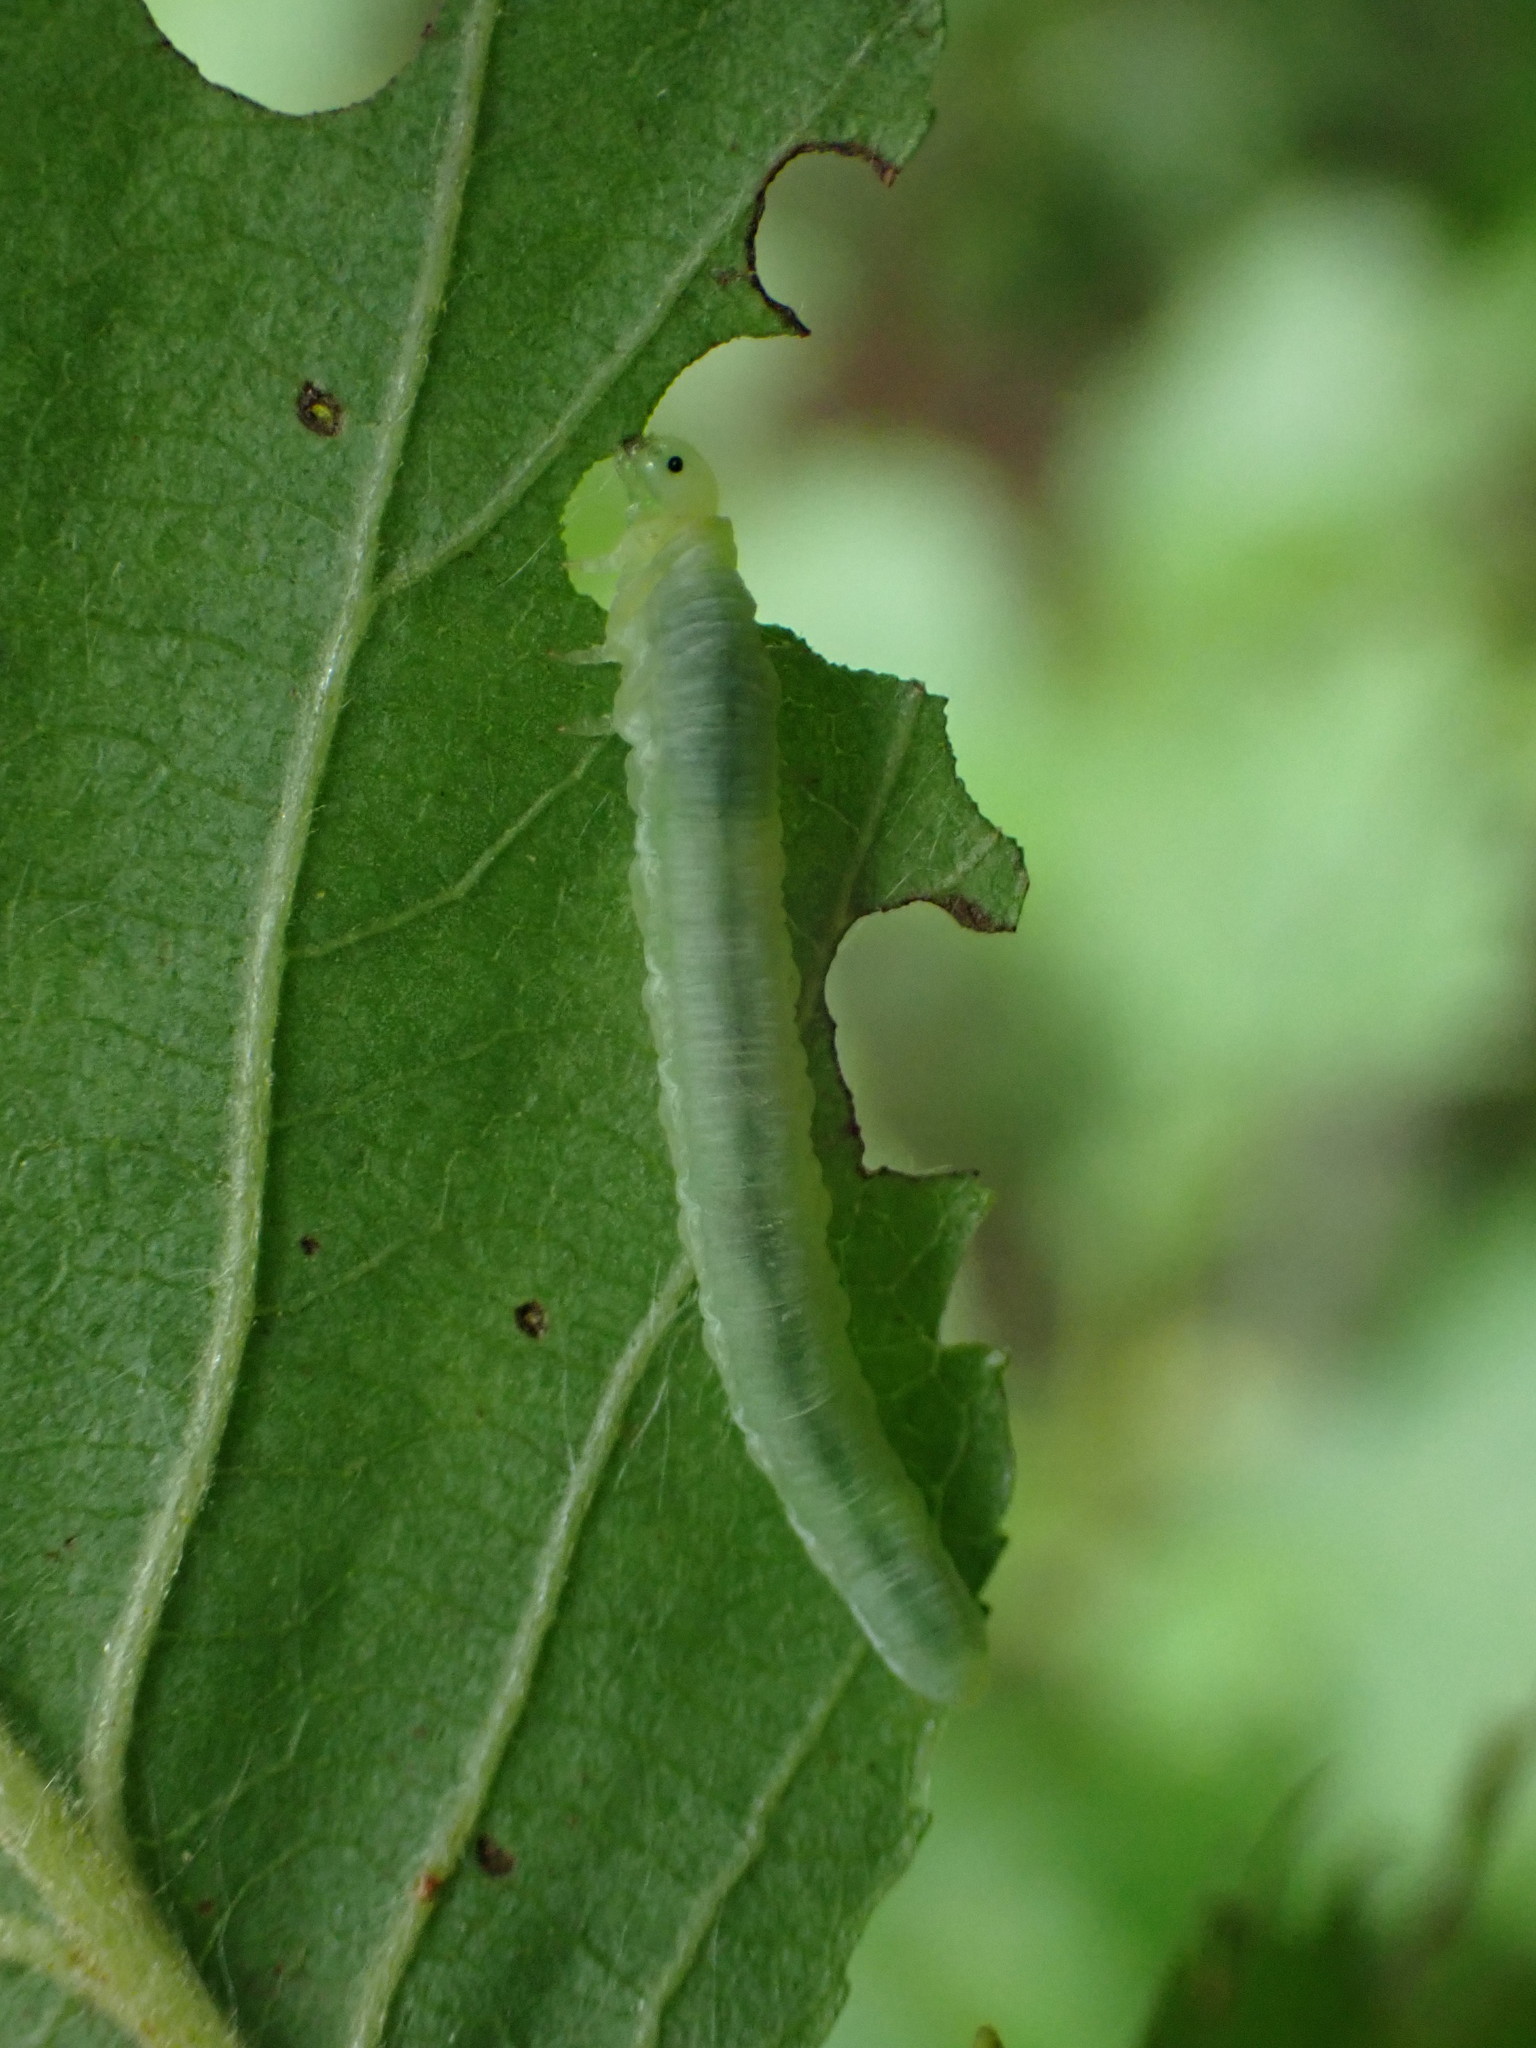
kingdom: Animalia
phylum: Arthropoda
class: Insecta
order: Hymenoptera
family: Tenthredinidae
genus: Monsoma
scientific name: Monsoma pulveratum
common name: Green alder sawfly
